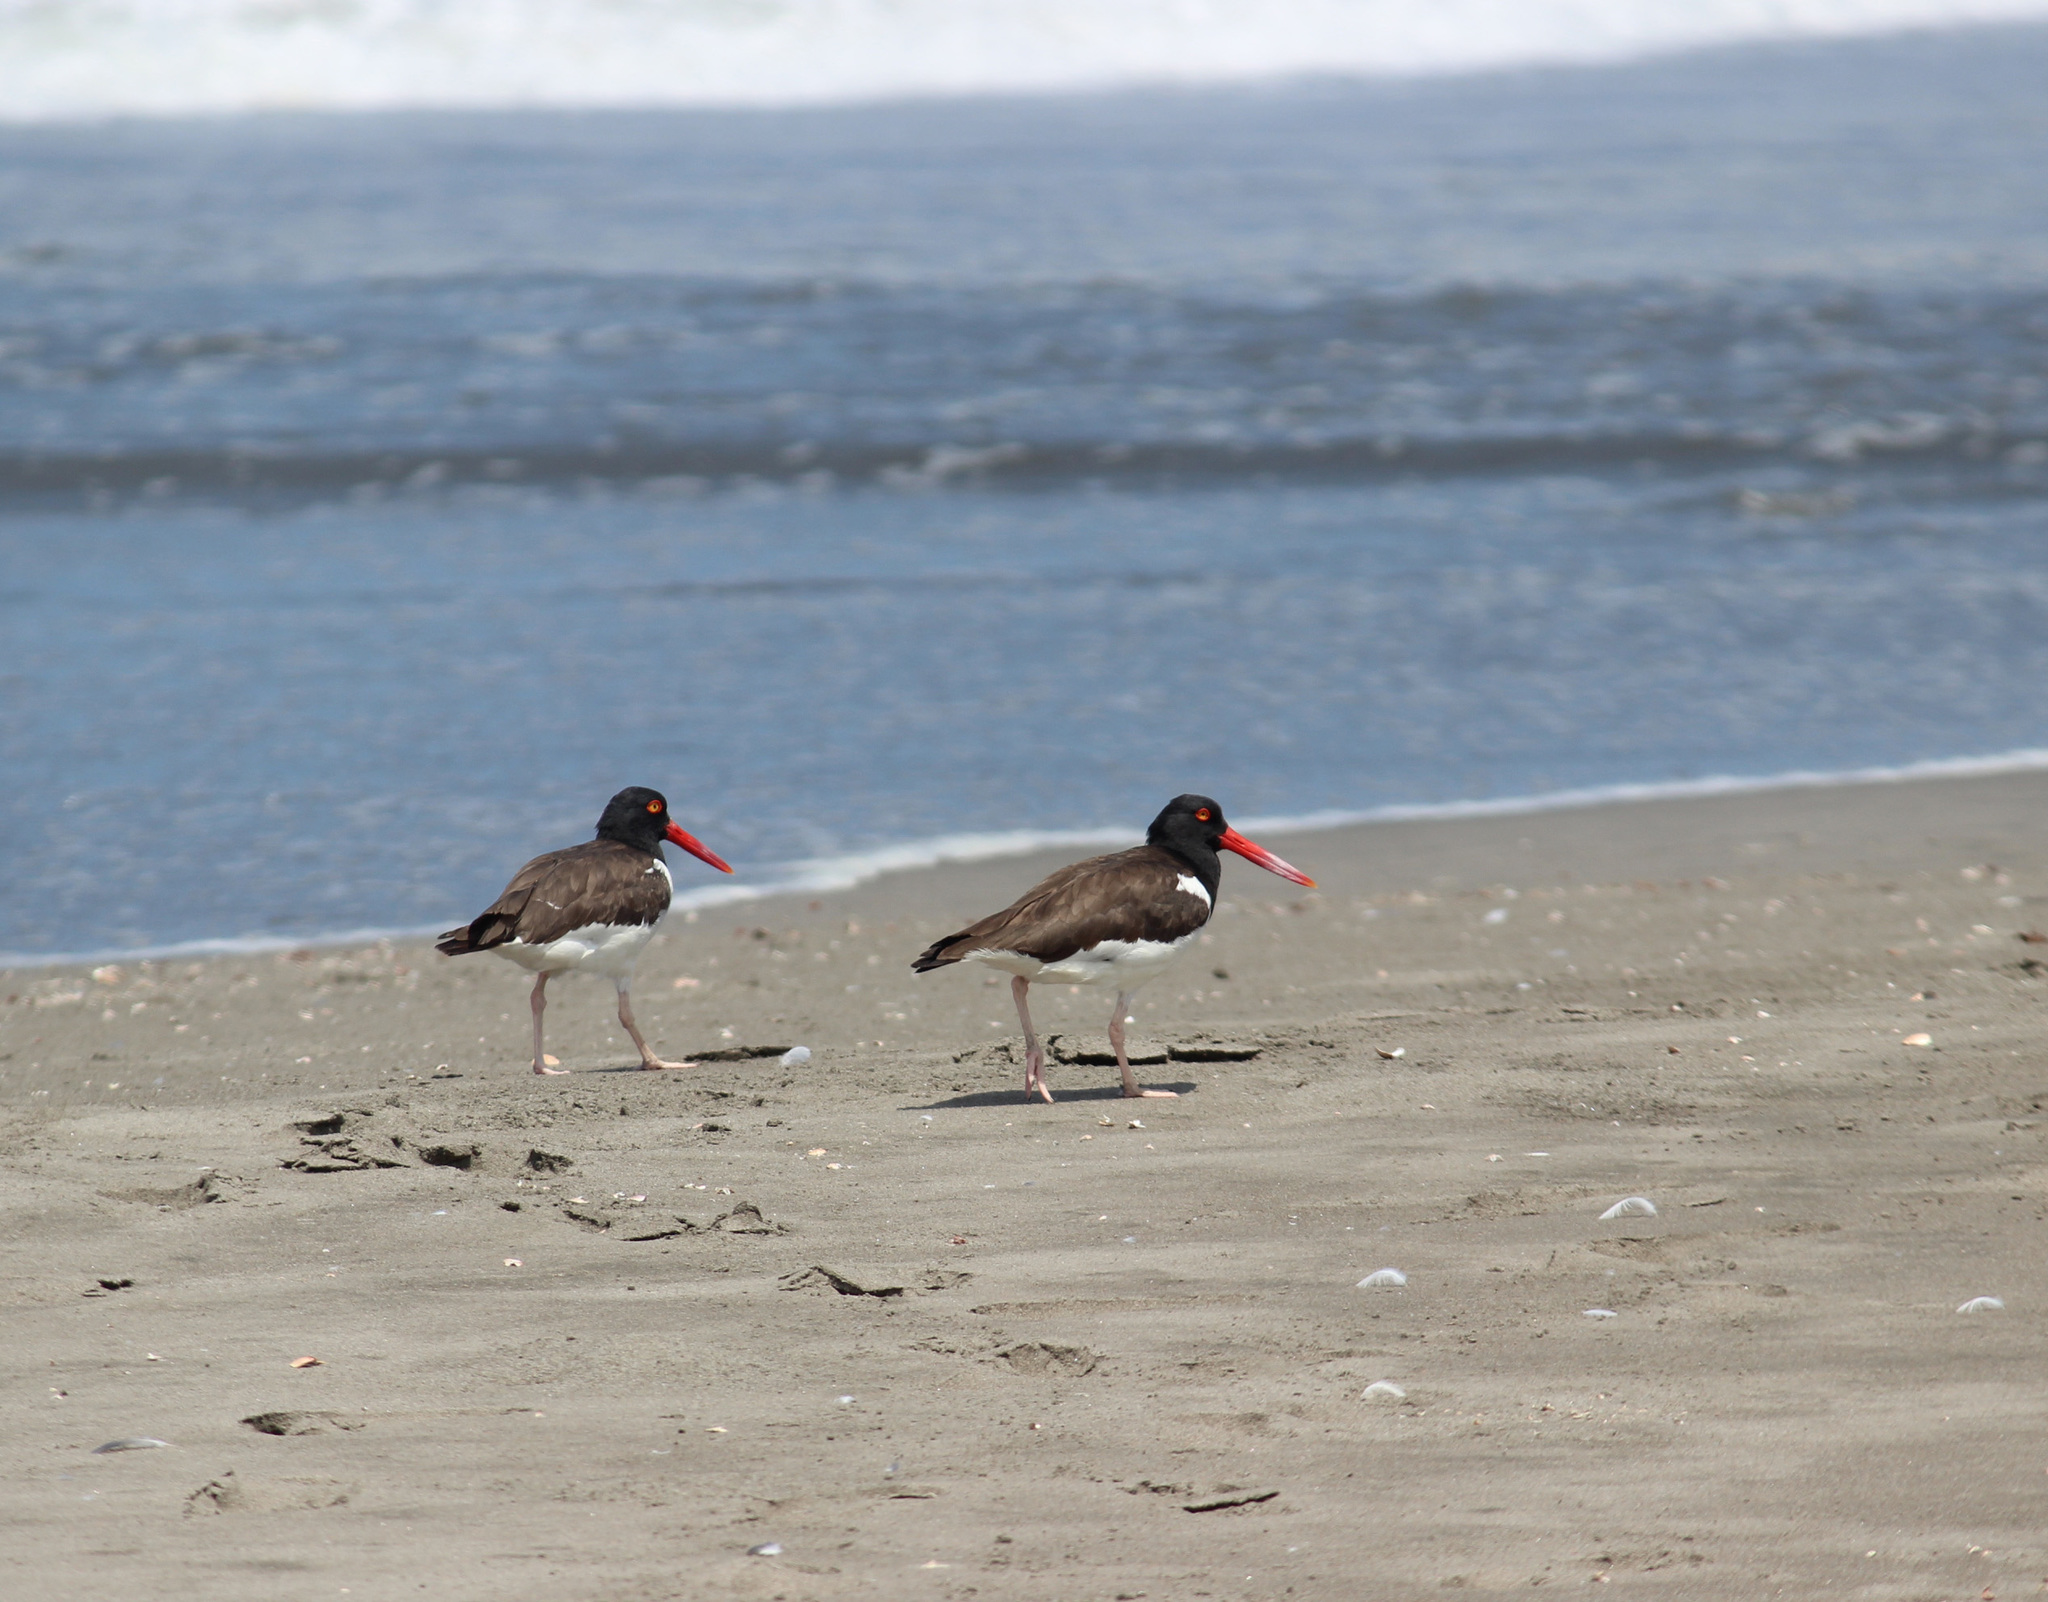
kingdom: Animalia
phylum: Chordata
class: Aves
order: Charadriiformes
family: Haematopodidae
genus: Haematopus
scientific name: Haematopus palliatus
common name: American oystercatcher
